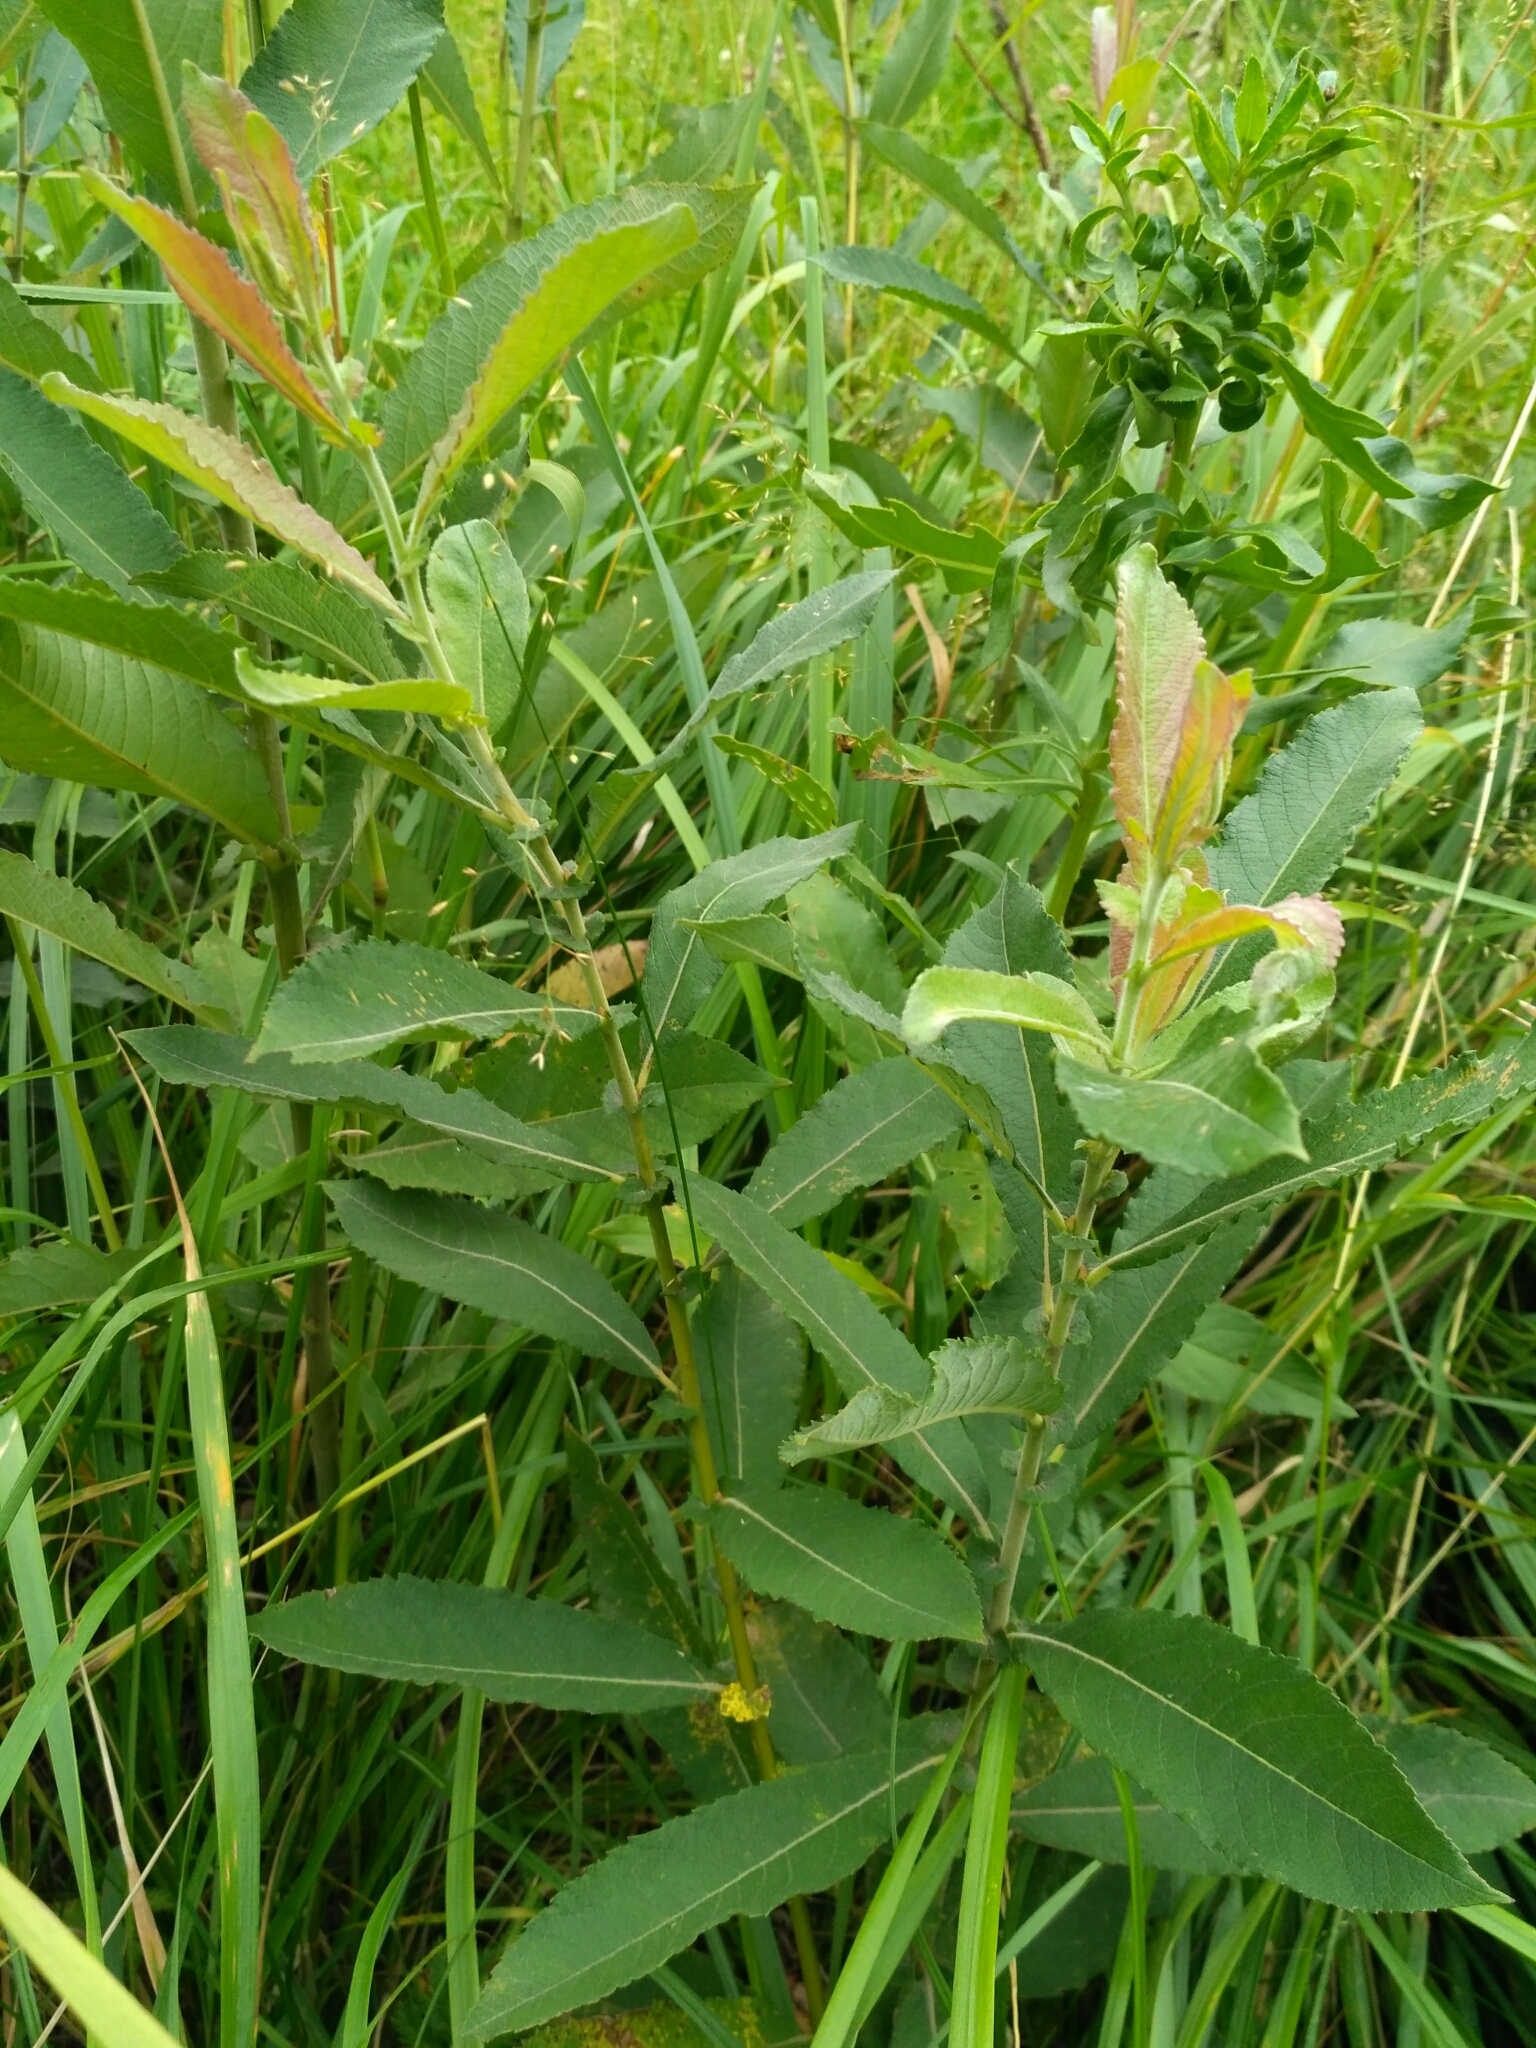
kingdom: Plantae
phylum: Tracheophyta
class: Magnoliopsida
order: Malpighiales
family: Salicaceae
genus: Salix
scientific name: Salix cinerea
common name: Common sallow
